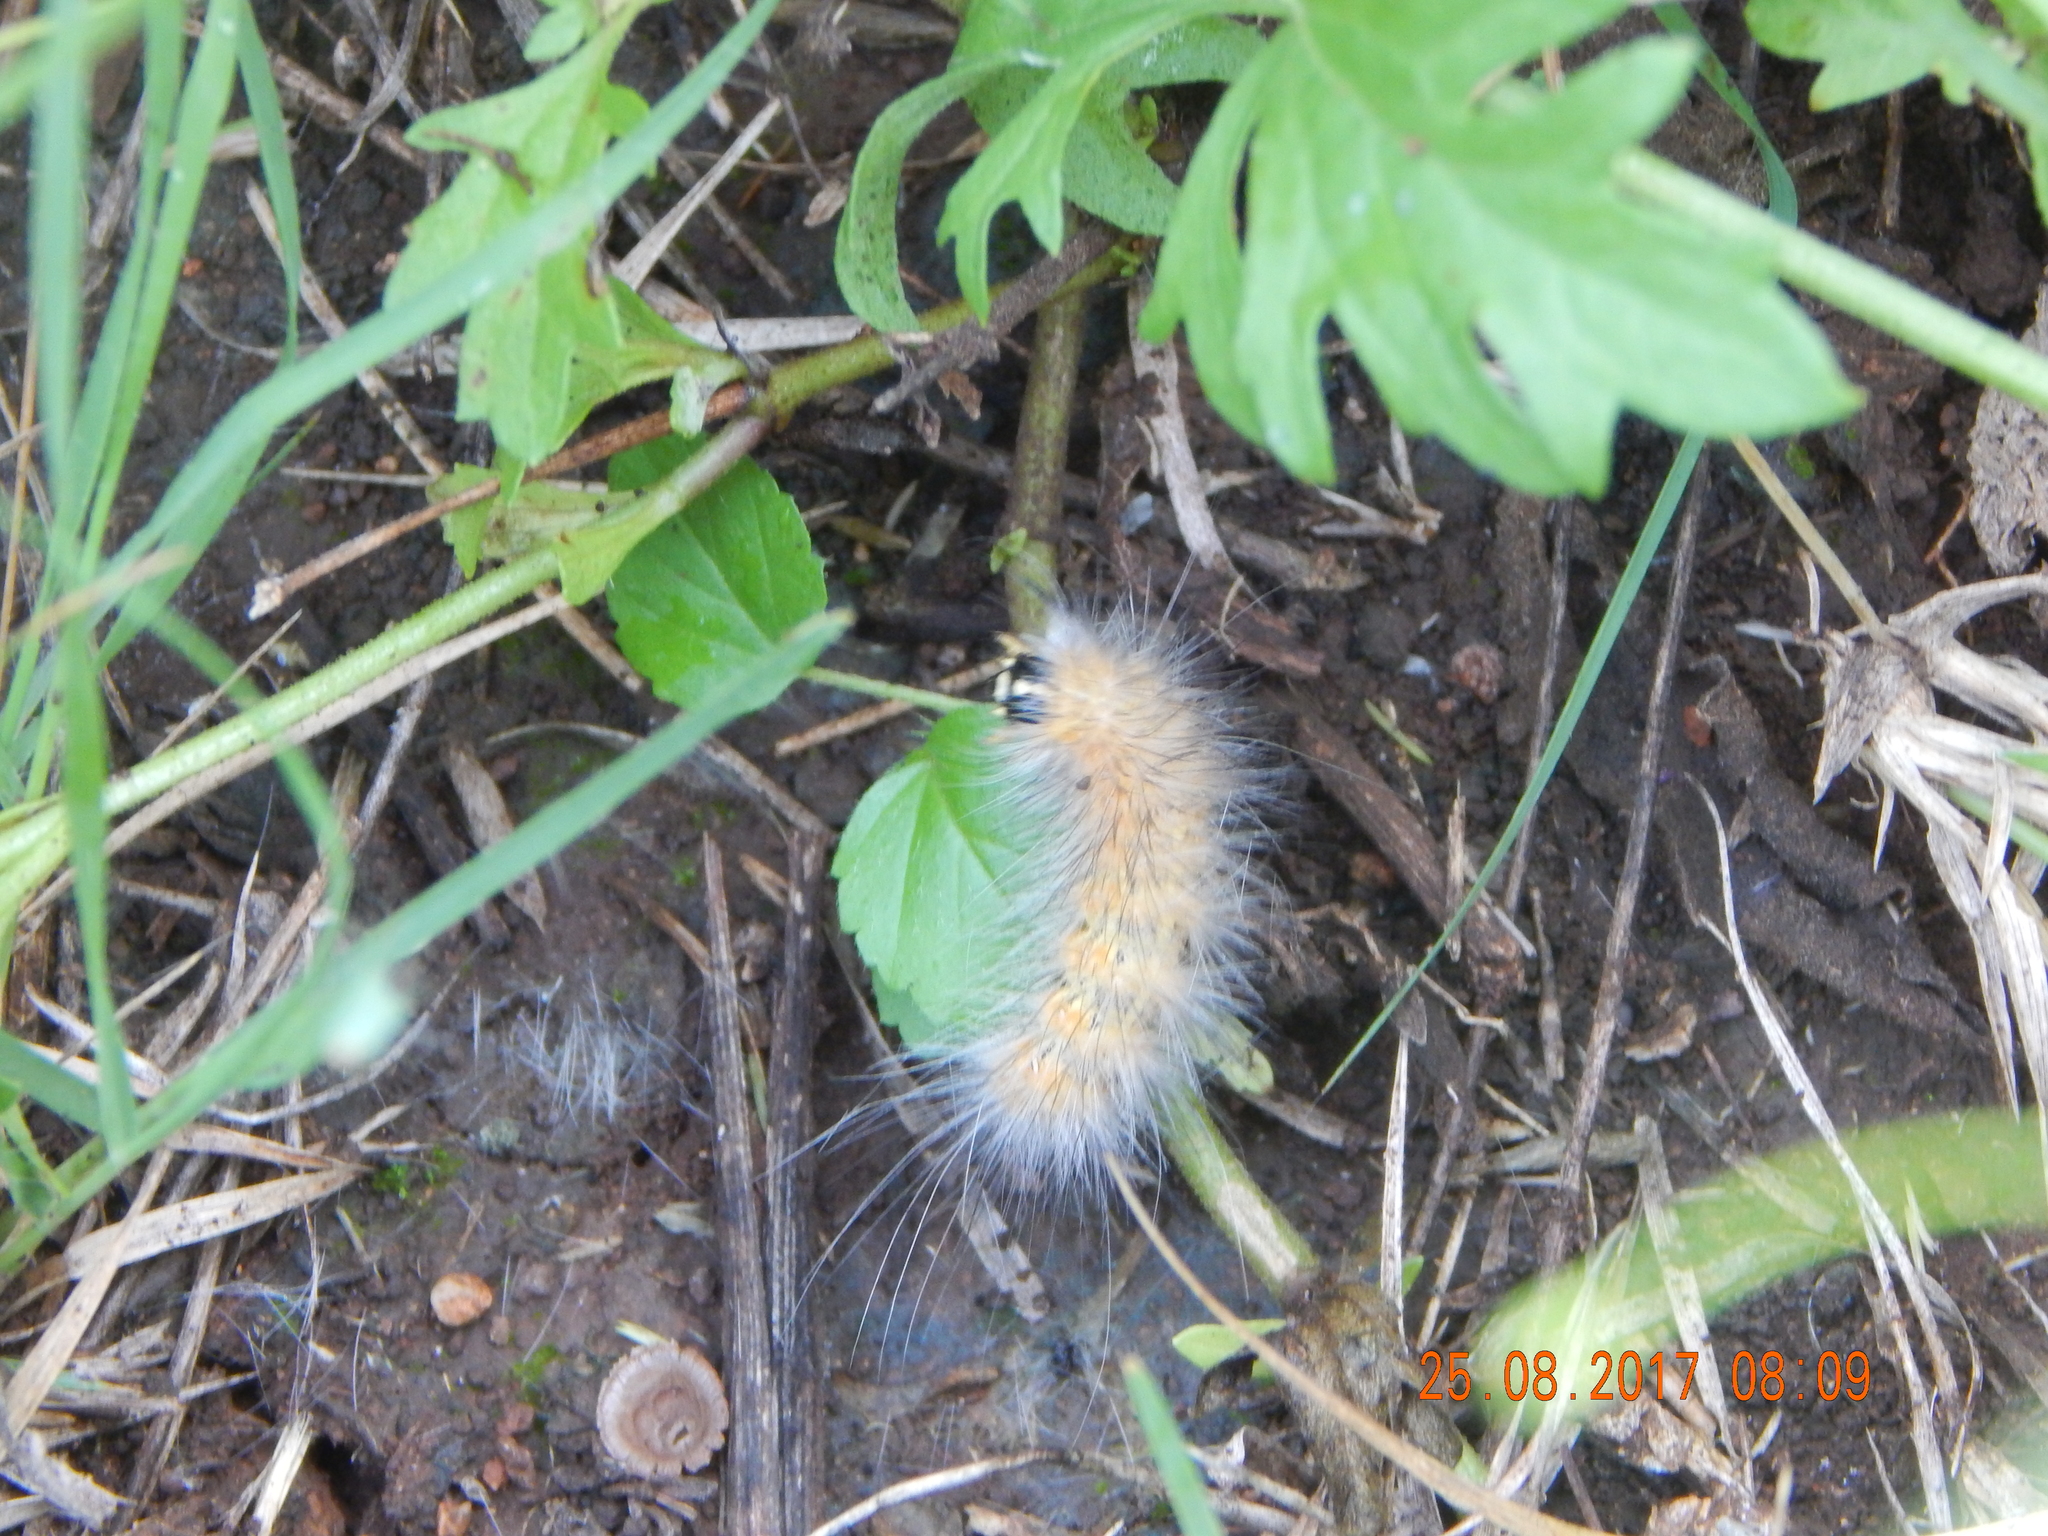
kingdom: Animalia
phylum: Arthropoda
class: Insecta
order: Lepidoptera
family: Erebidae
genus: Estigmene
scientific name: Estigmene acrea
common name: Salt marsh moth
